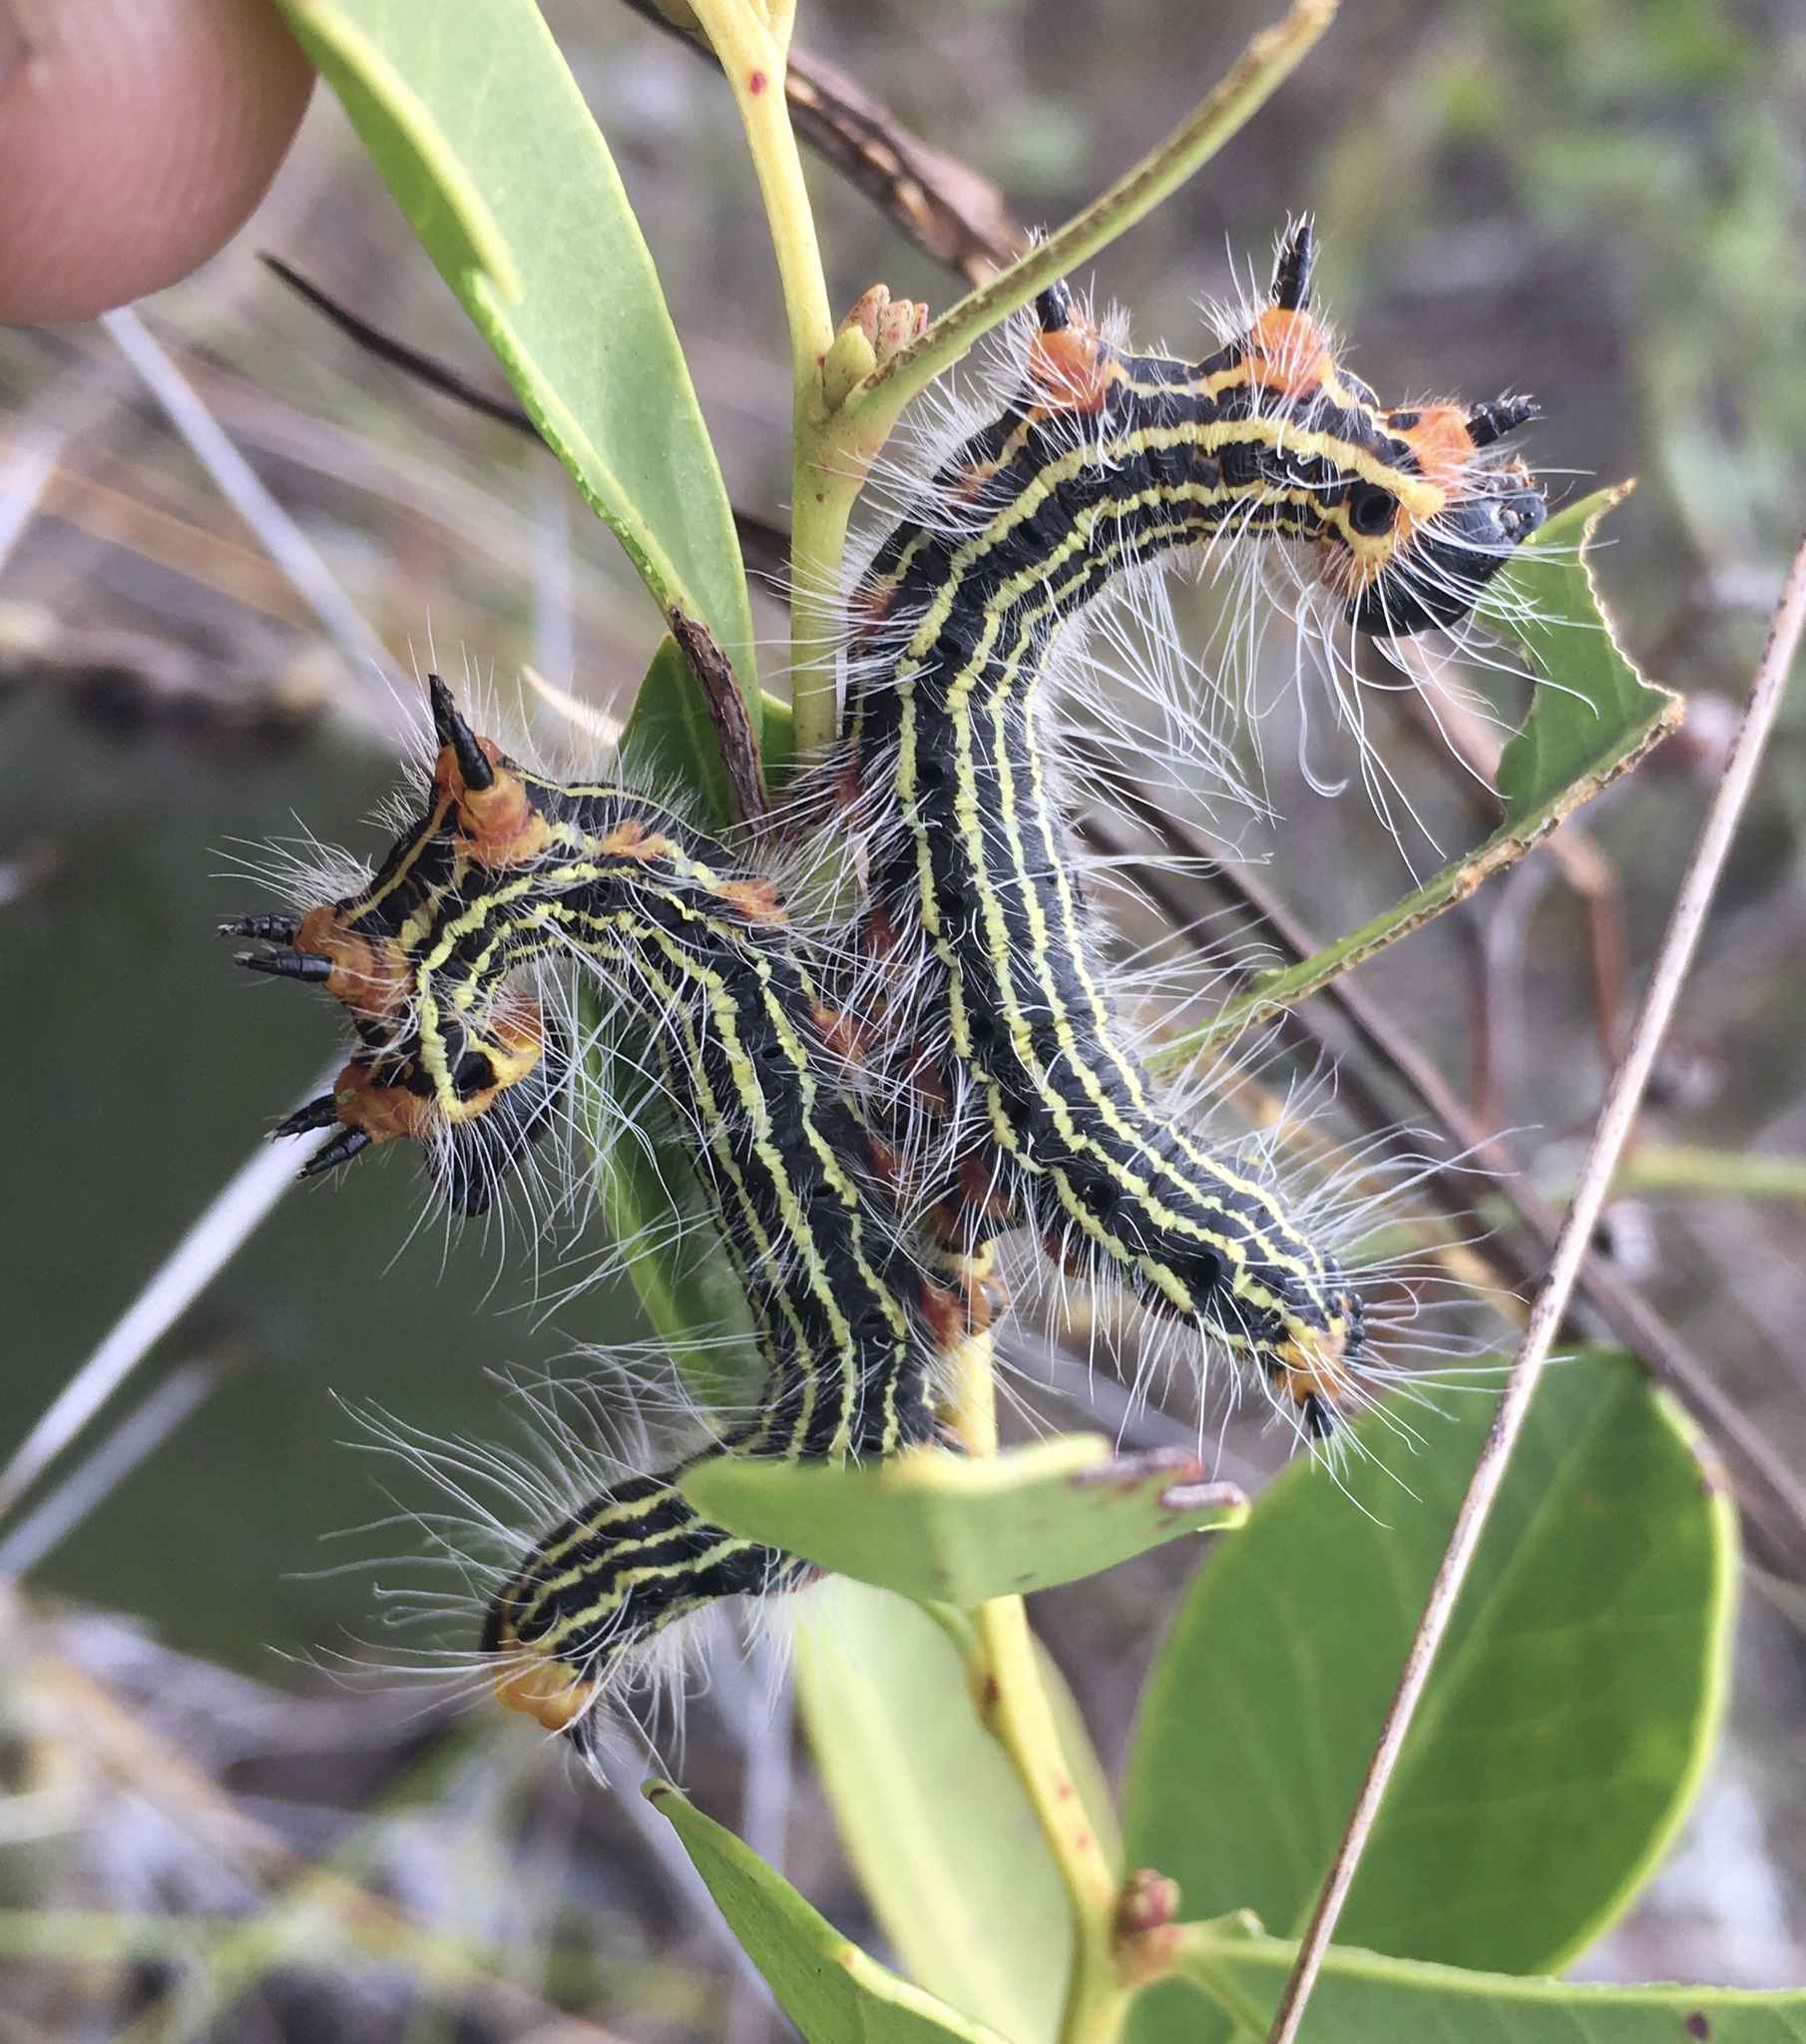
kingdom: Animalia
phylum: Arthropoda
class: Insecta
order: Lepidoptera
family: Notodontidae
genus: Datana
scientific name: Datana ministra
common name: Yellow-necked caterpillar moth
